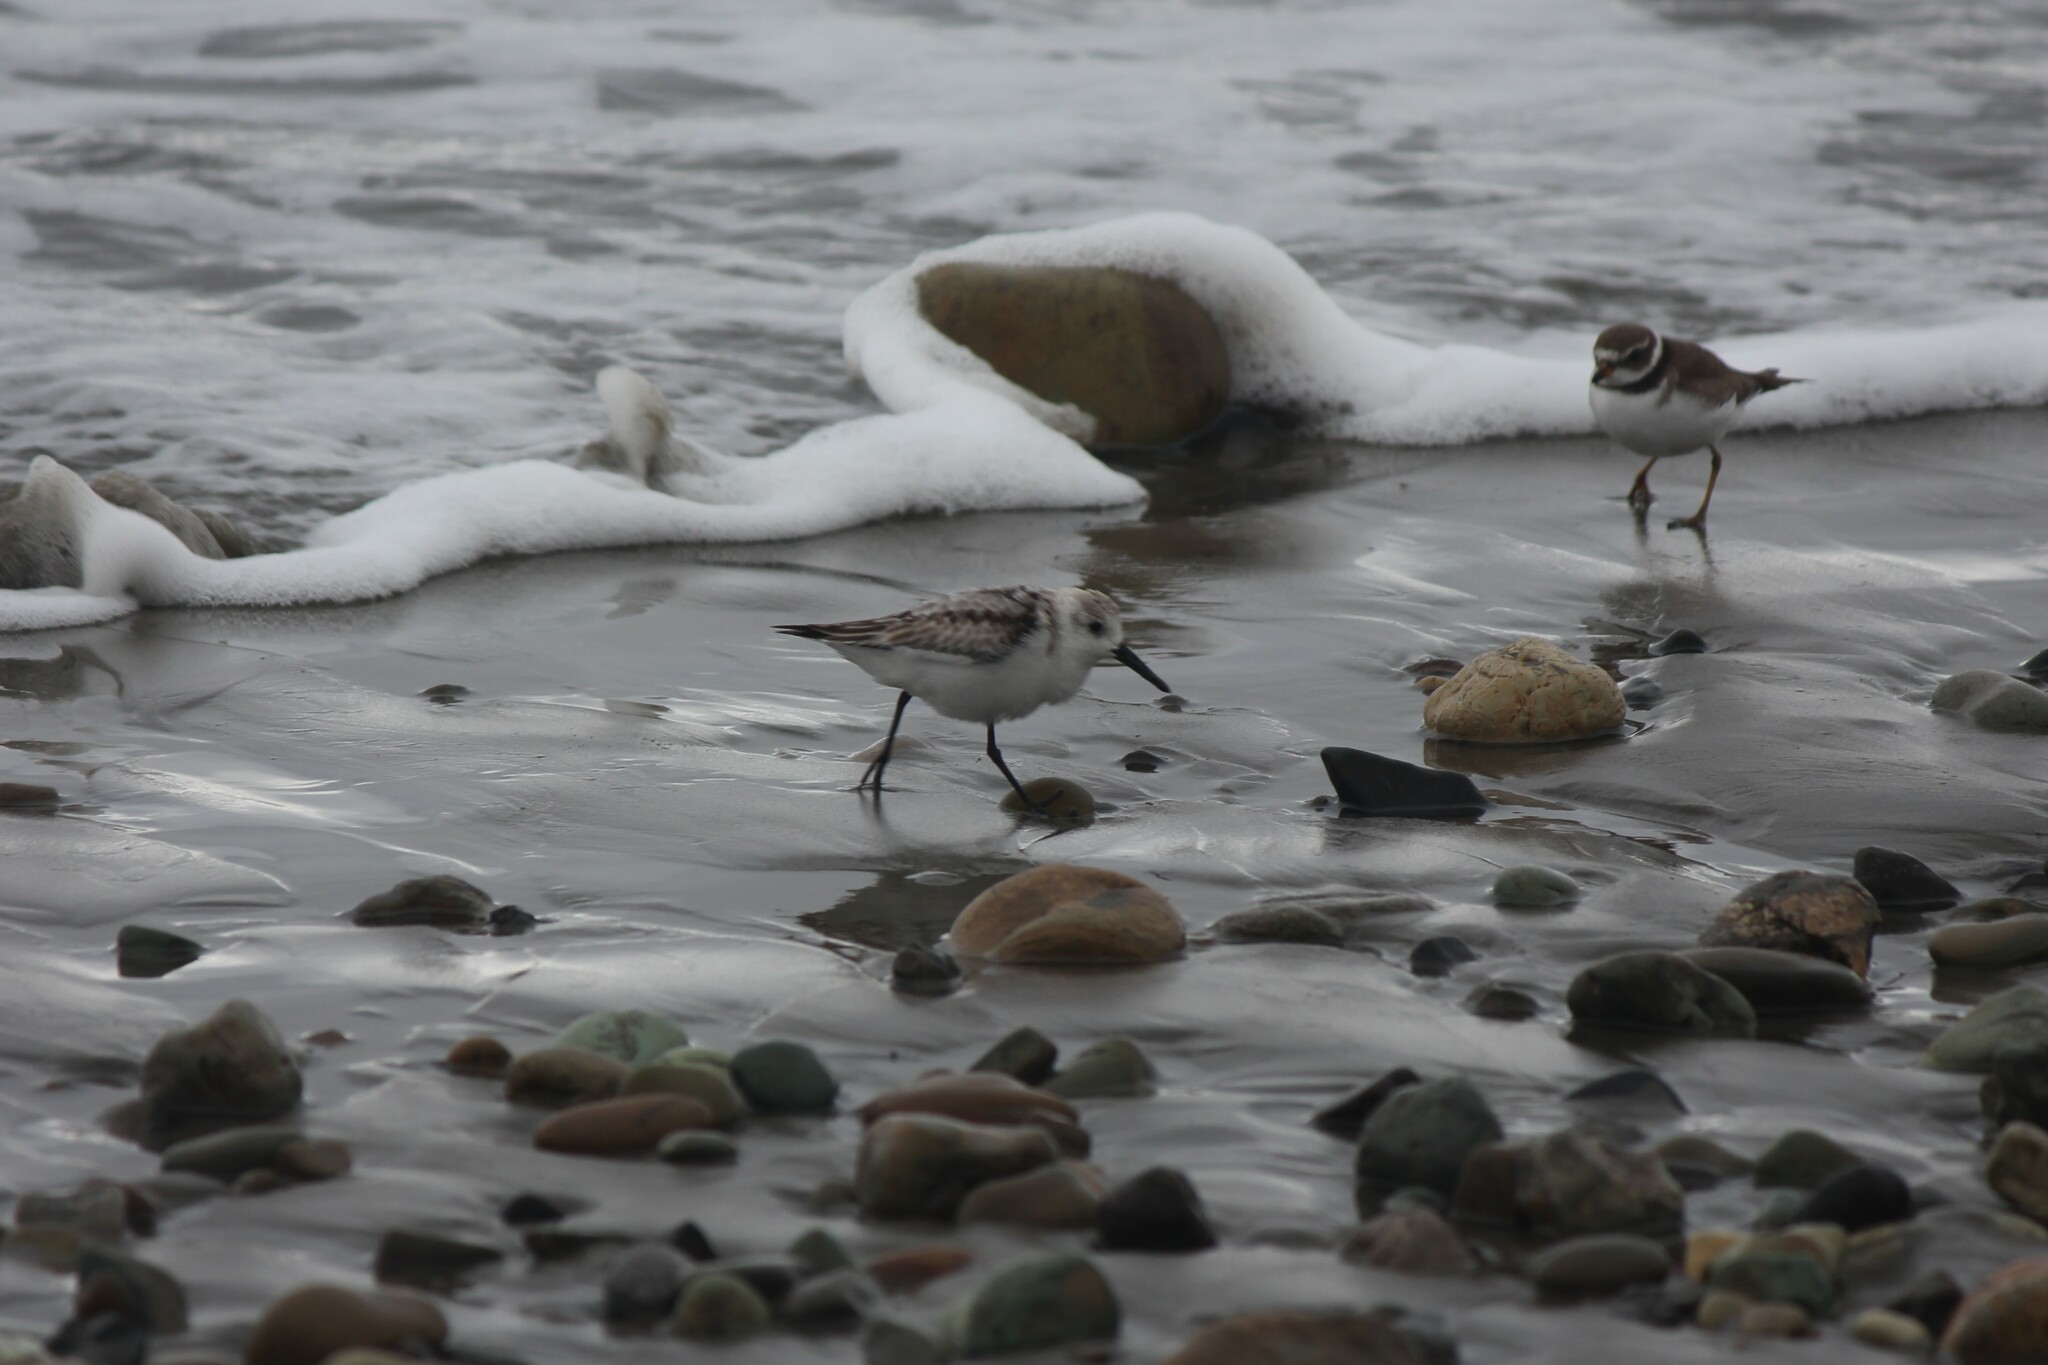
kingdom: Animalia
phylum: Chordata
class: Aves
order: Charadriiformes
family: Scolopacidae
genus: Calidris
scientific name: Calidris alba
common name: Sanderling
